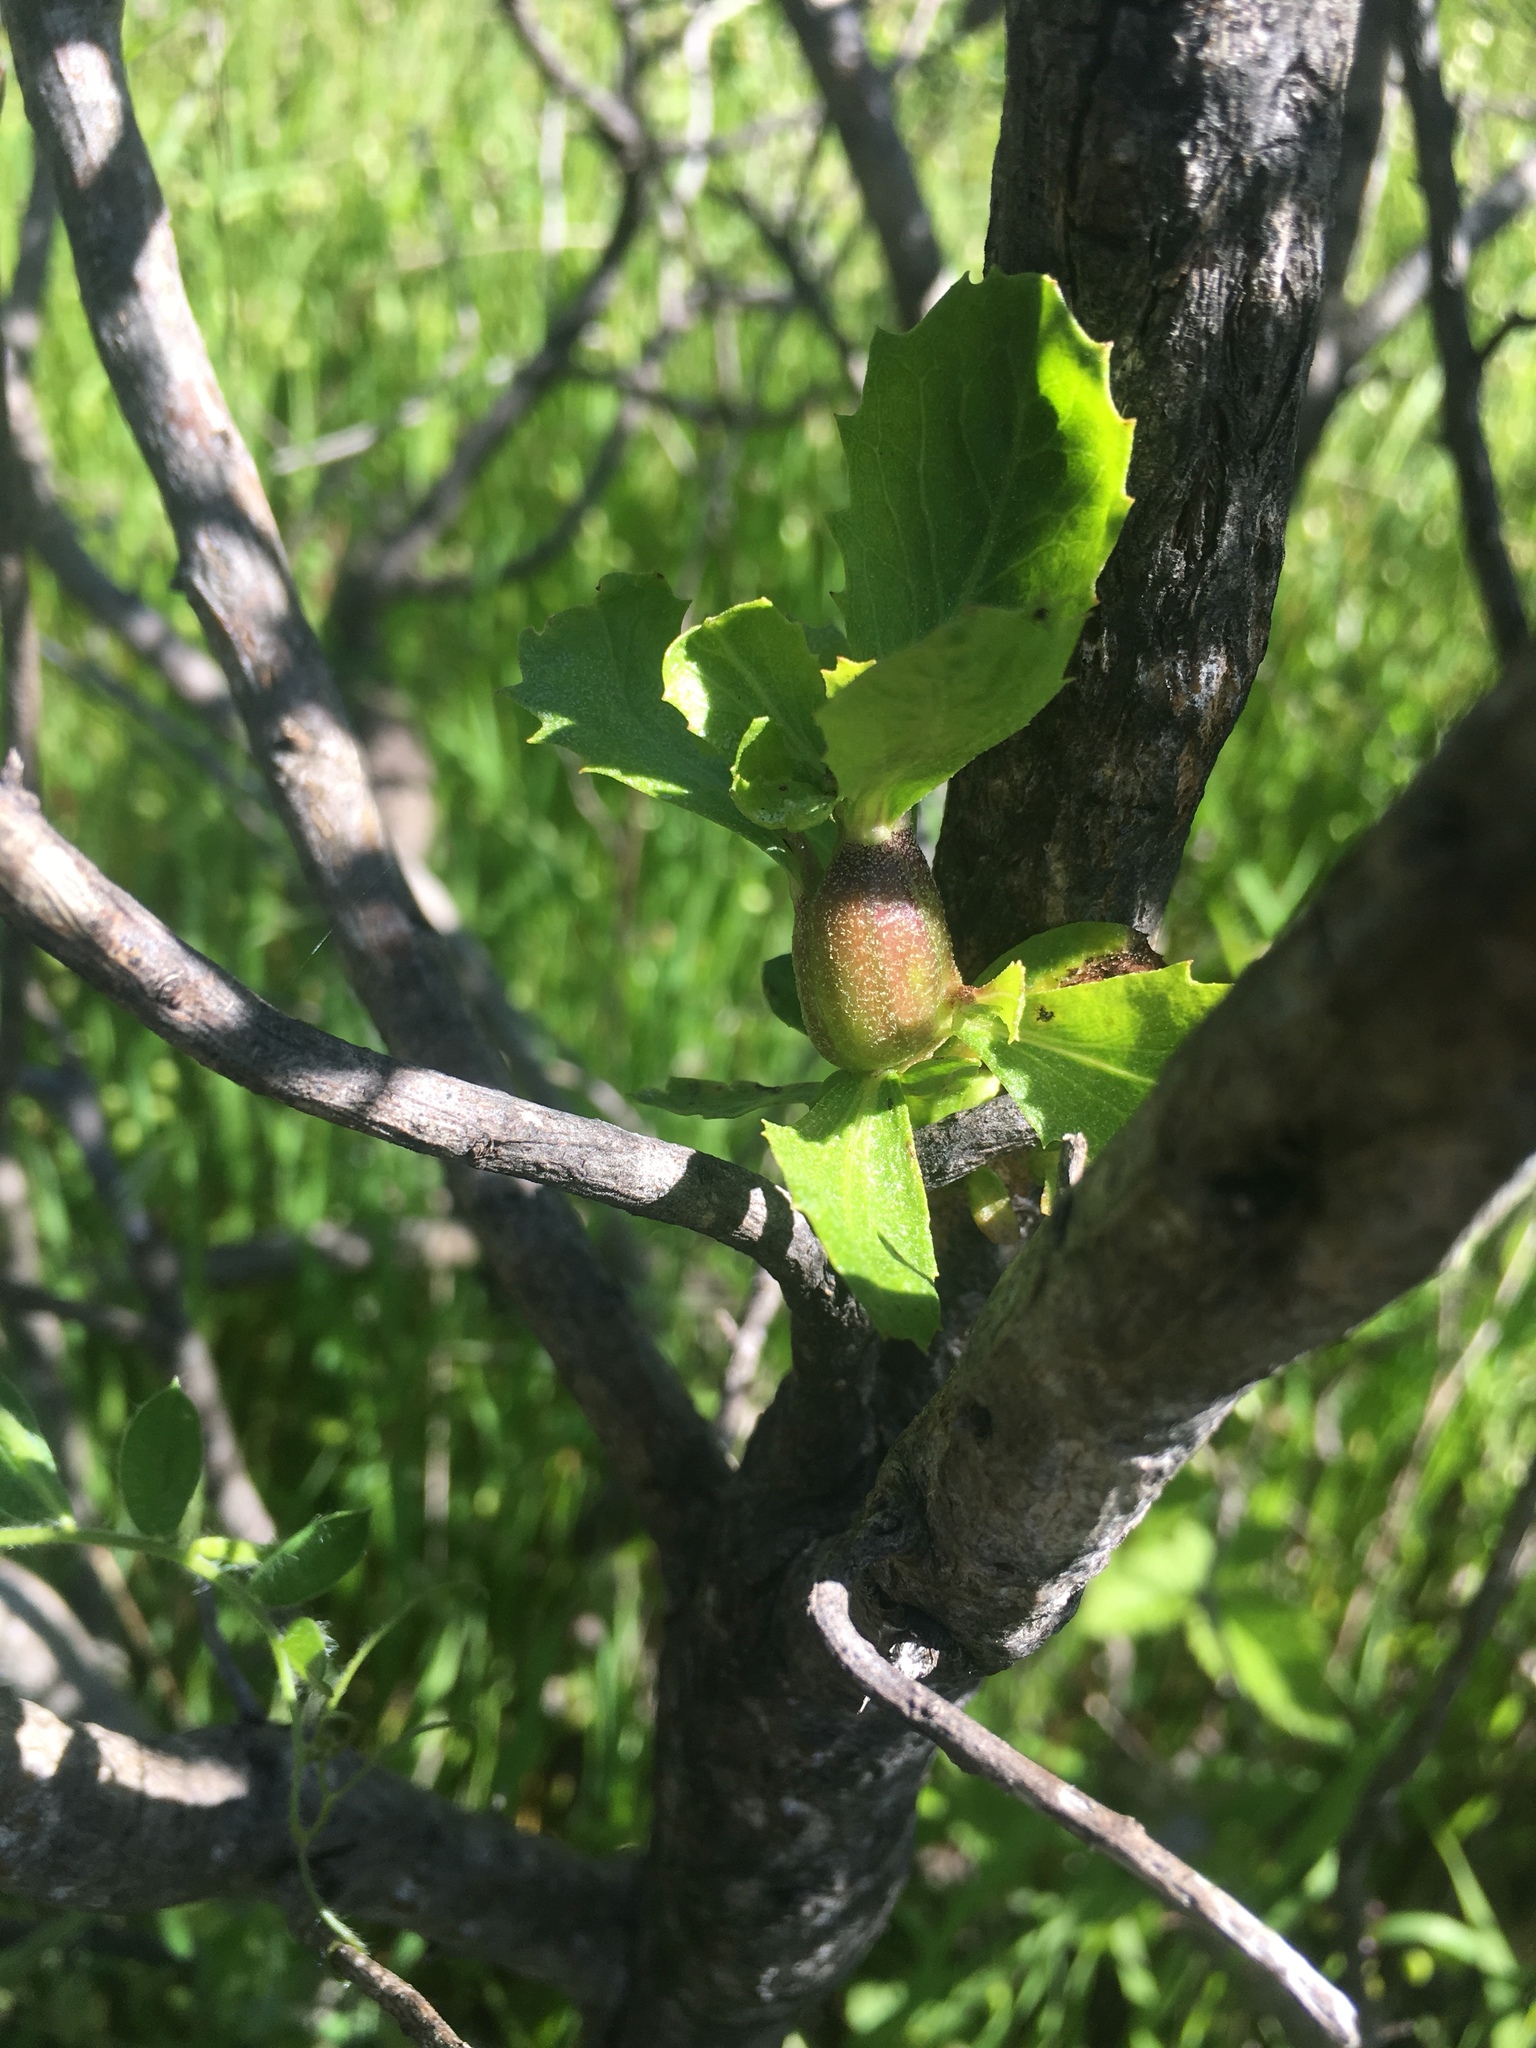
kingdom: Animalia
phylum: Arthropoda
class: Insecta
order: Lepidoptera
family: Gelechiidae
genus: Gnorimoschema
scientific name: Gnorimoschema baccharisella
